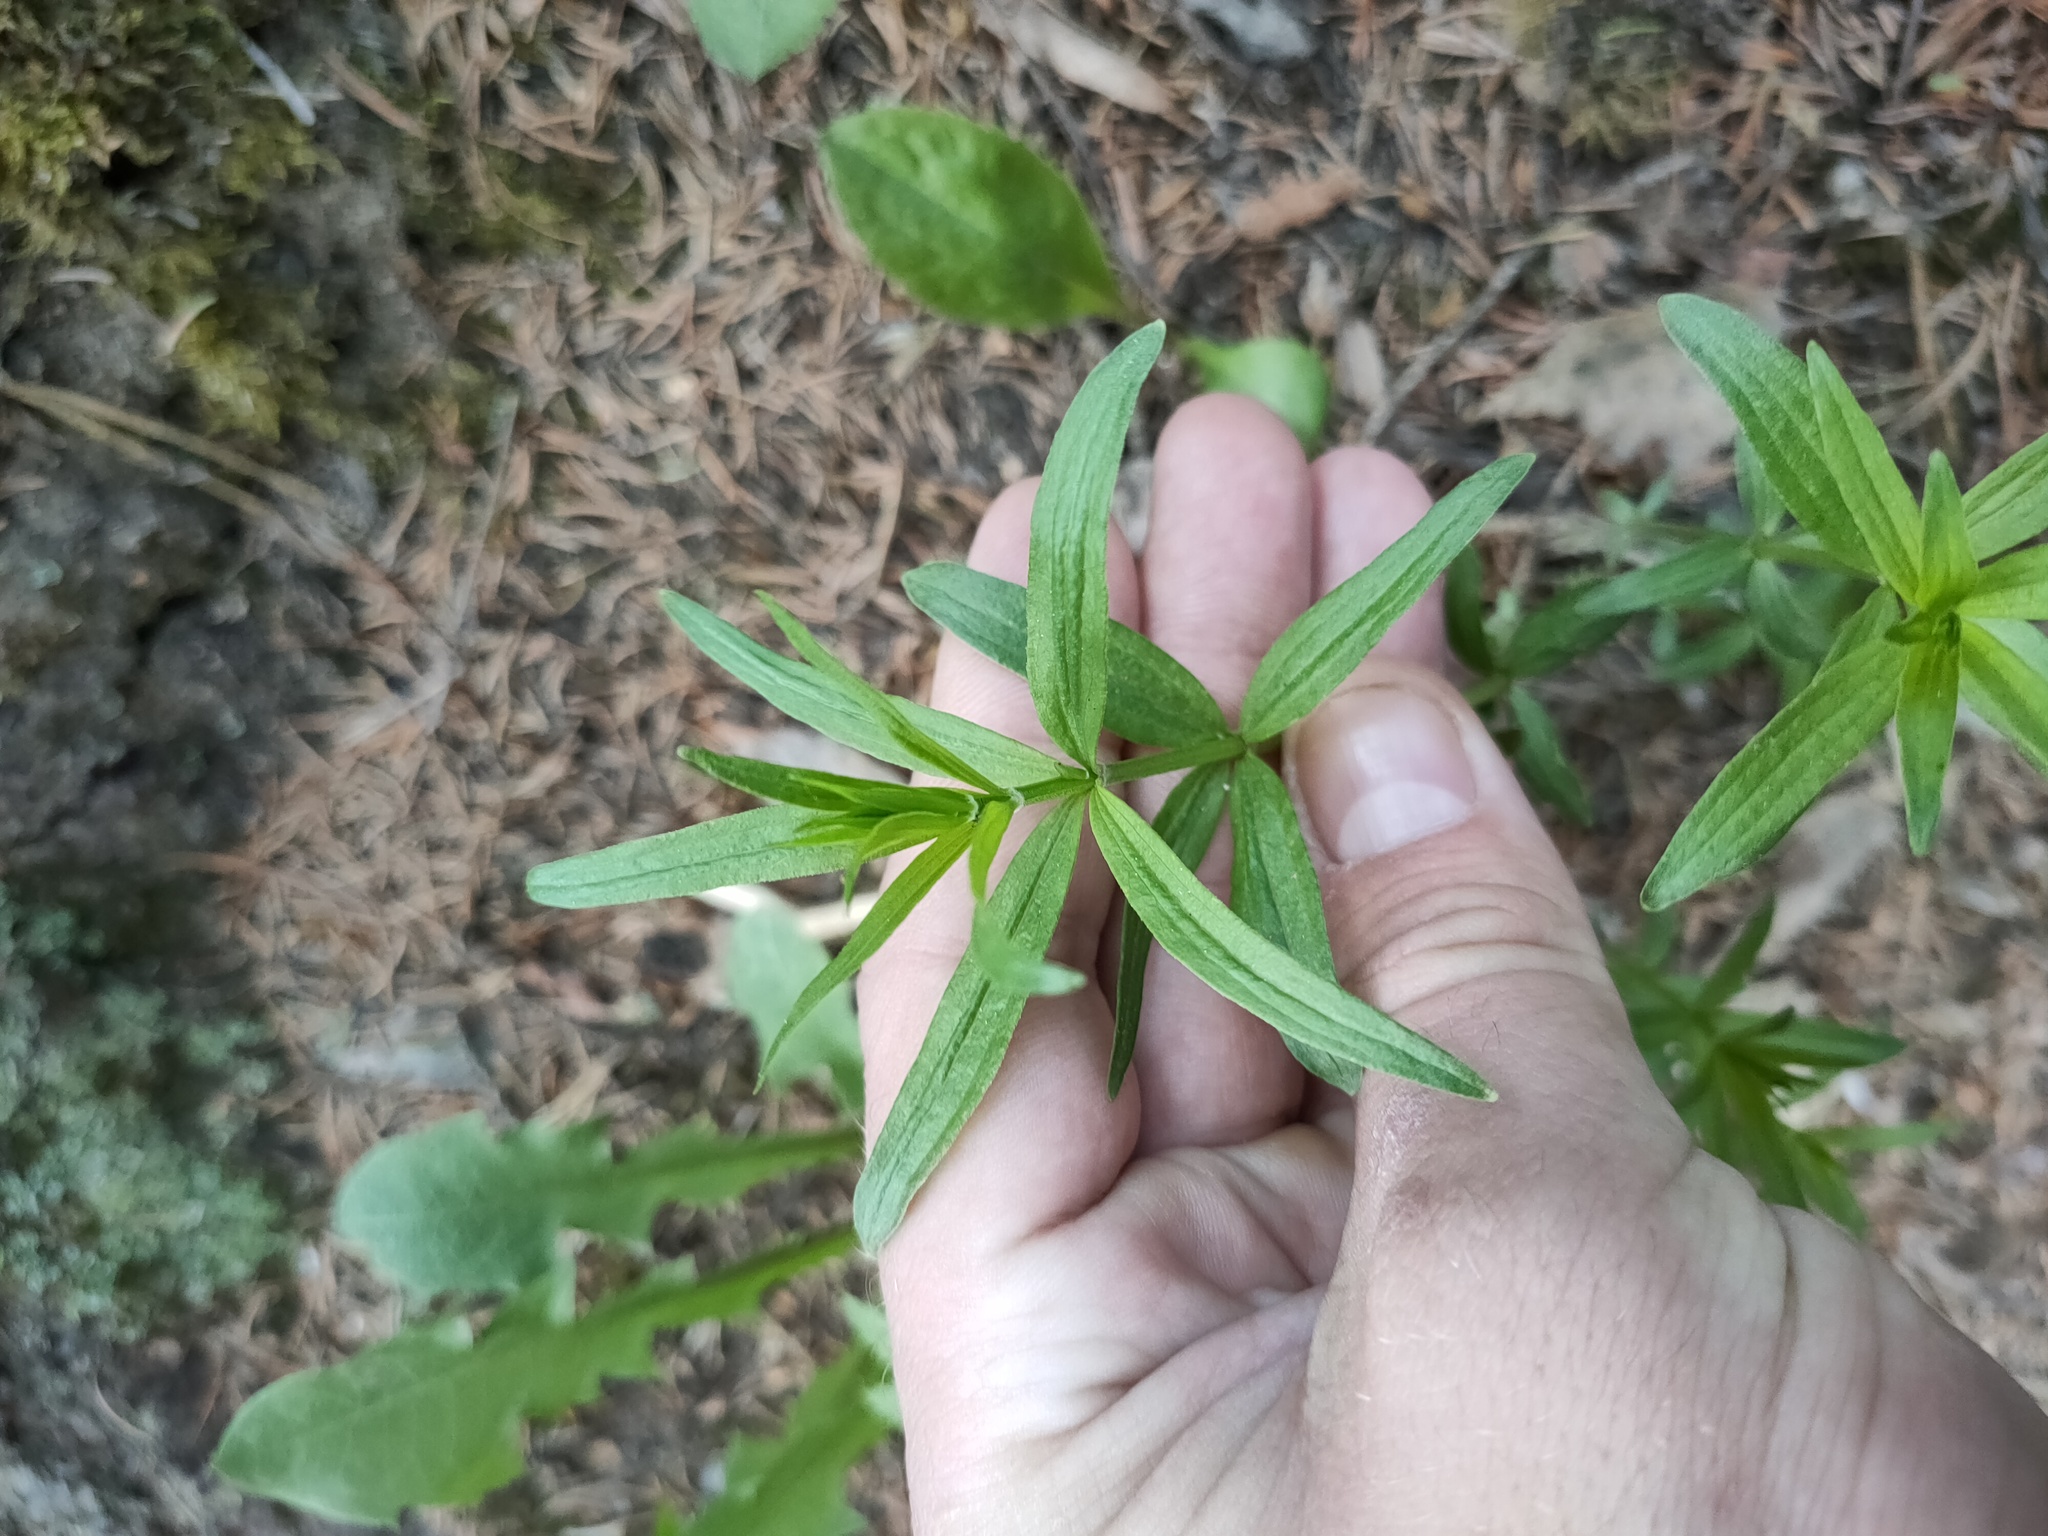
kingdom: Plantae
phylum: Tracheophyta
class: Magnoliopsida
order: Gentianales
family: Rubiaceae
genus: Galium
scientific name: Galium boreale
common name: Northern bedstraw
